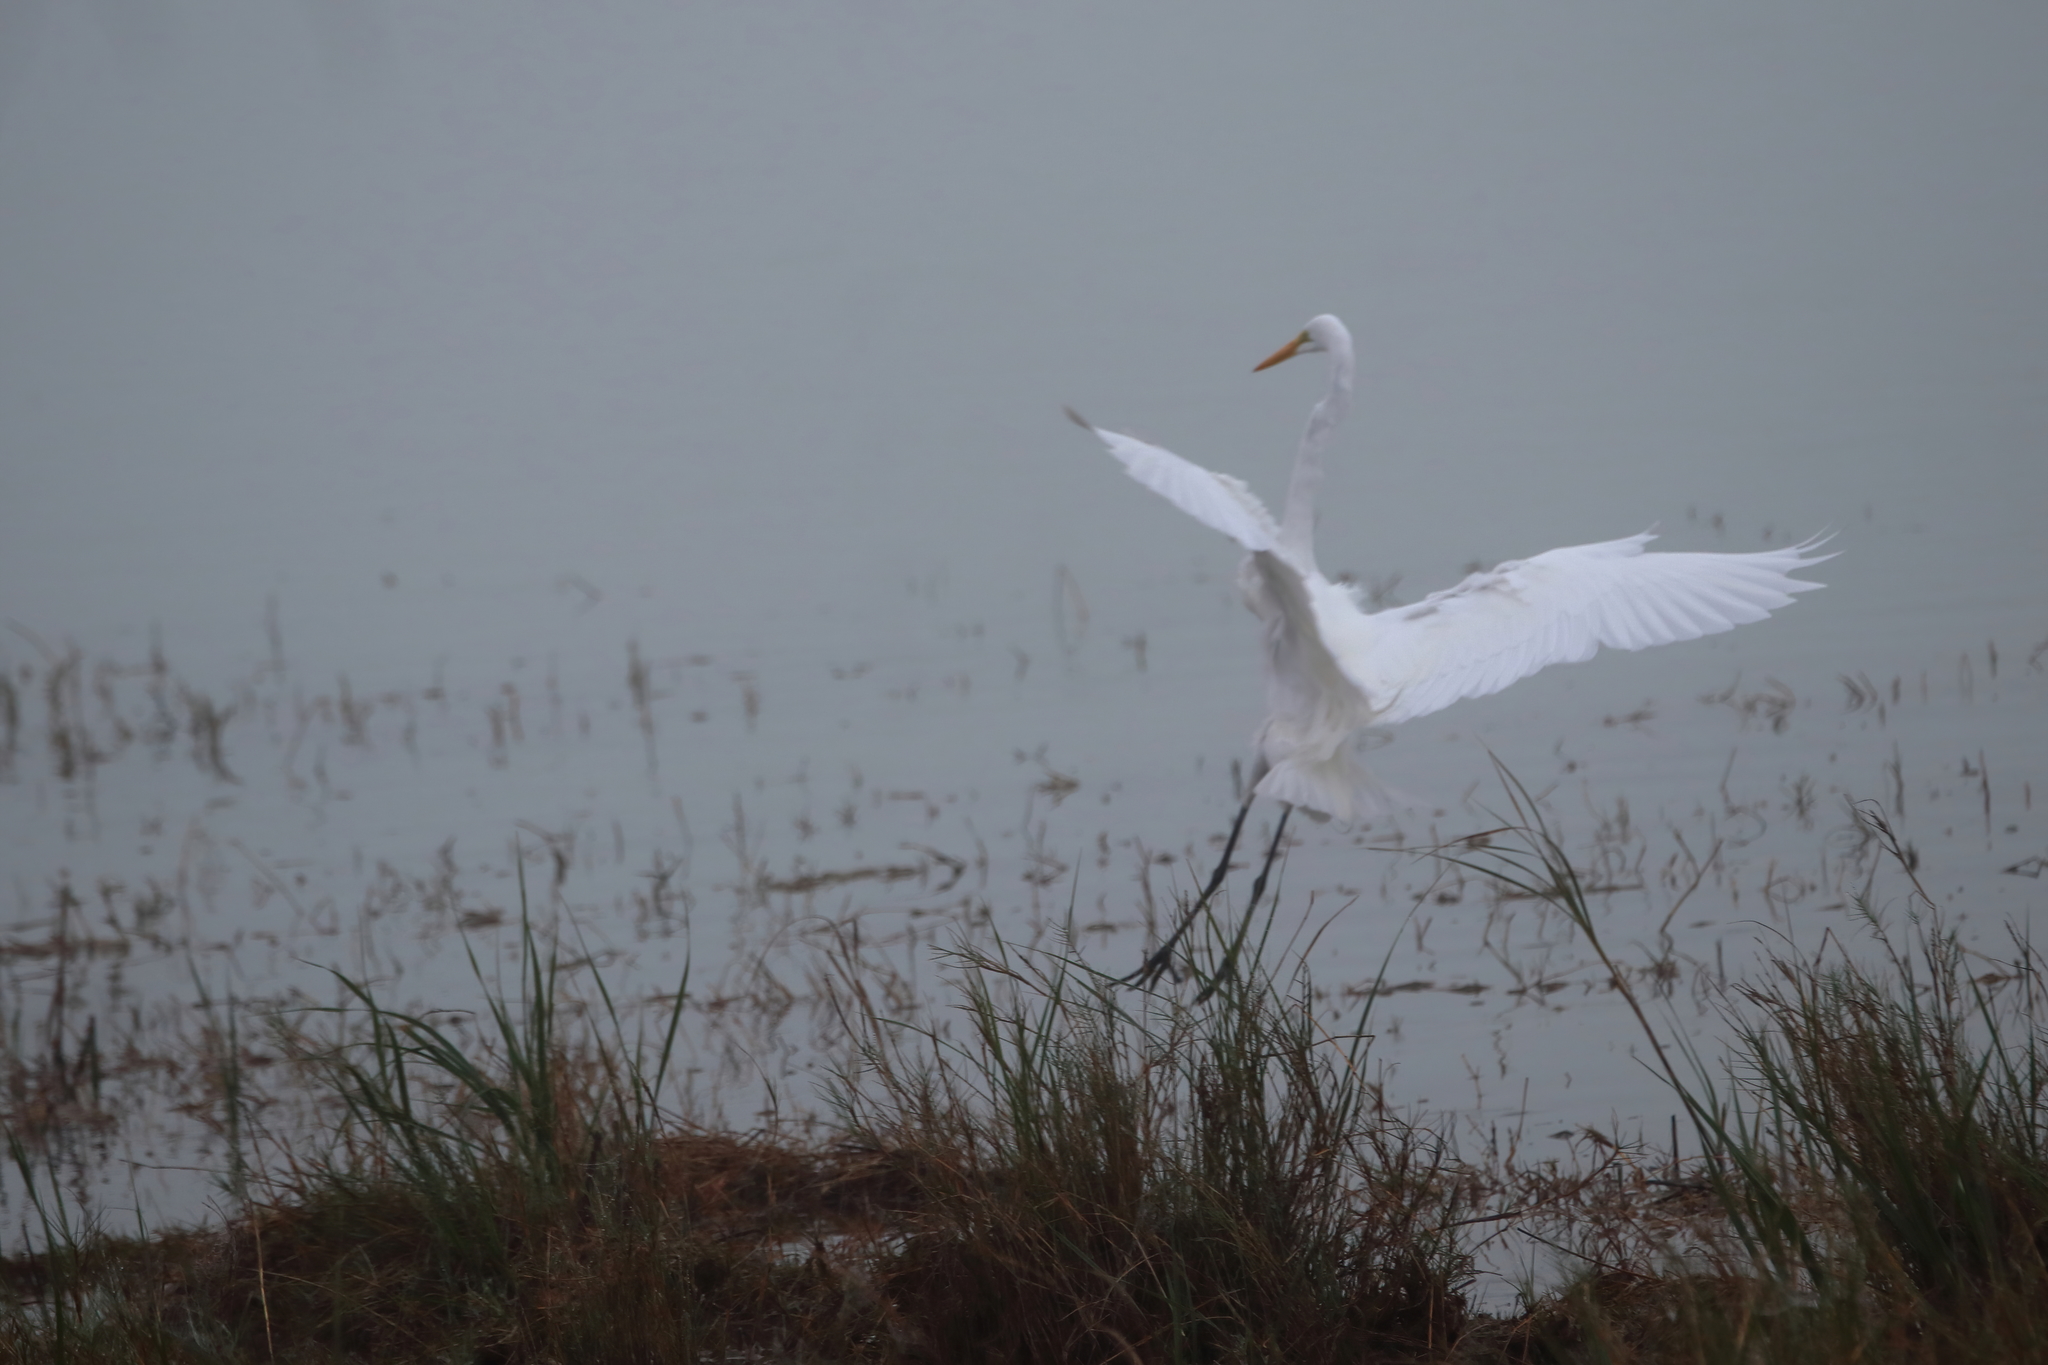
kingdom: Animalia
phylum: Chordata
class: Aves
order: Pelecaniformes
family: Ardeidae
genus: Ardea
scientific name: Ardea alba
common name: Great egret
